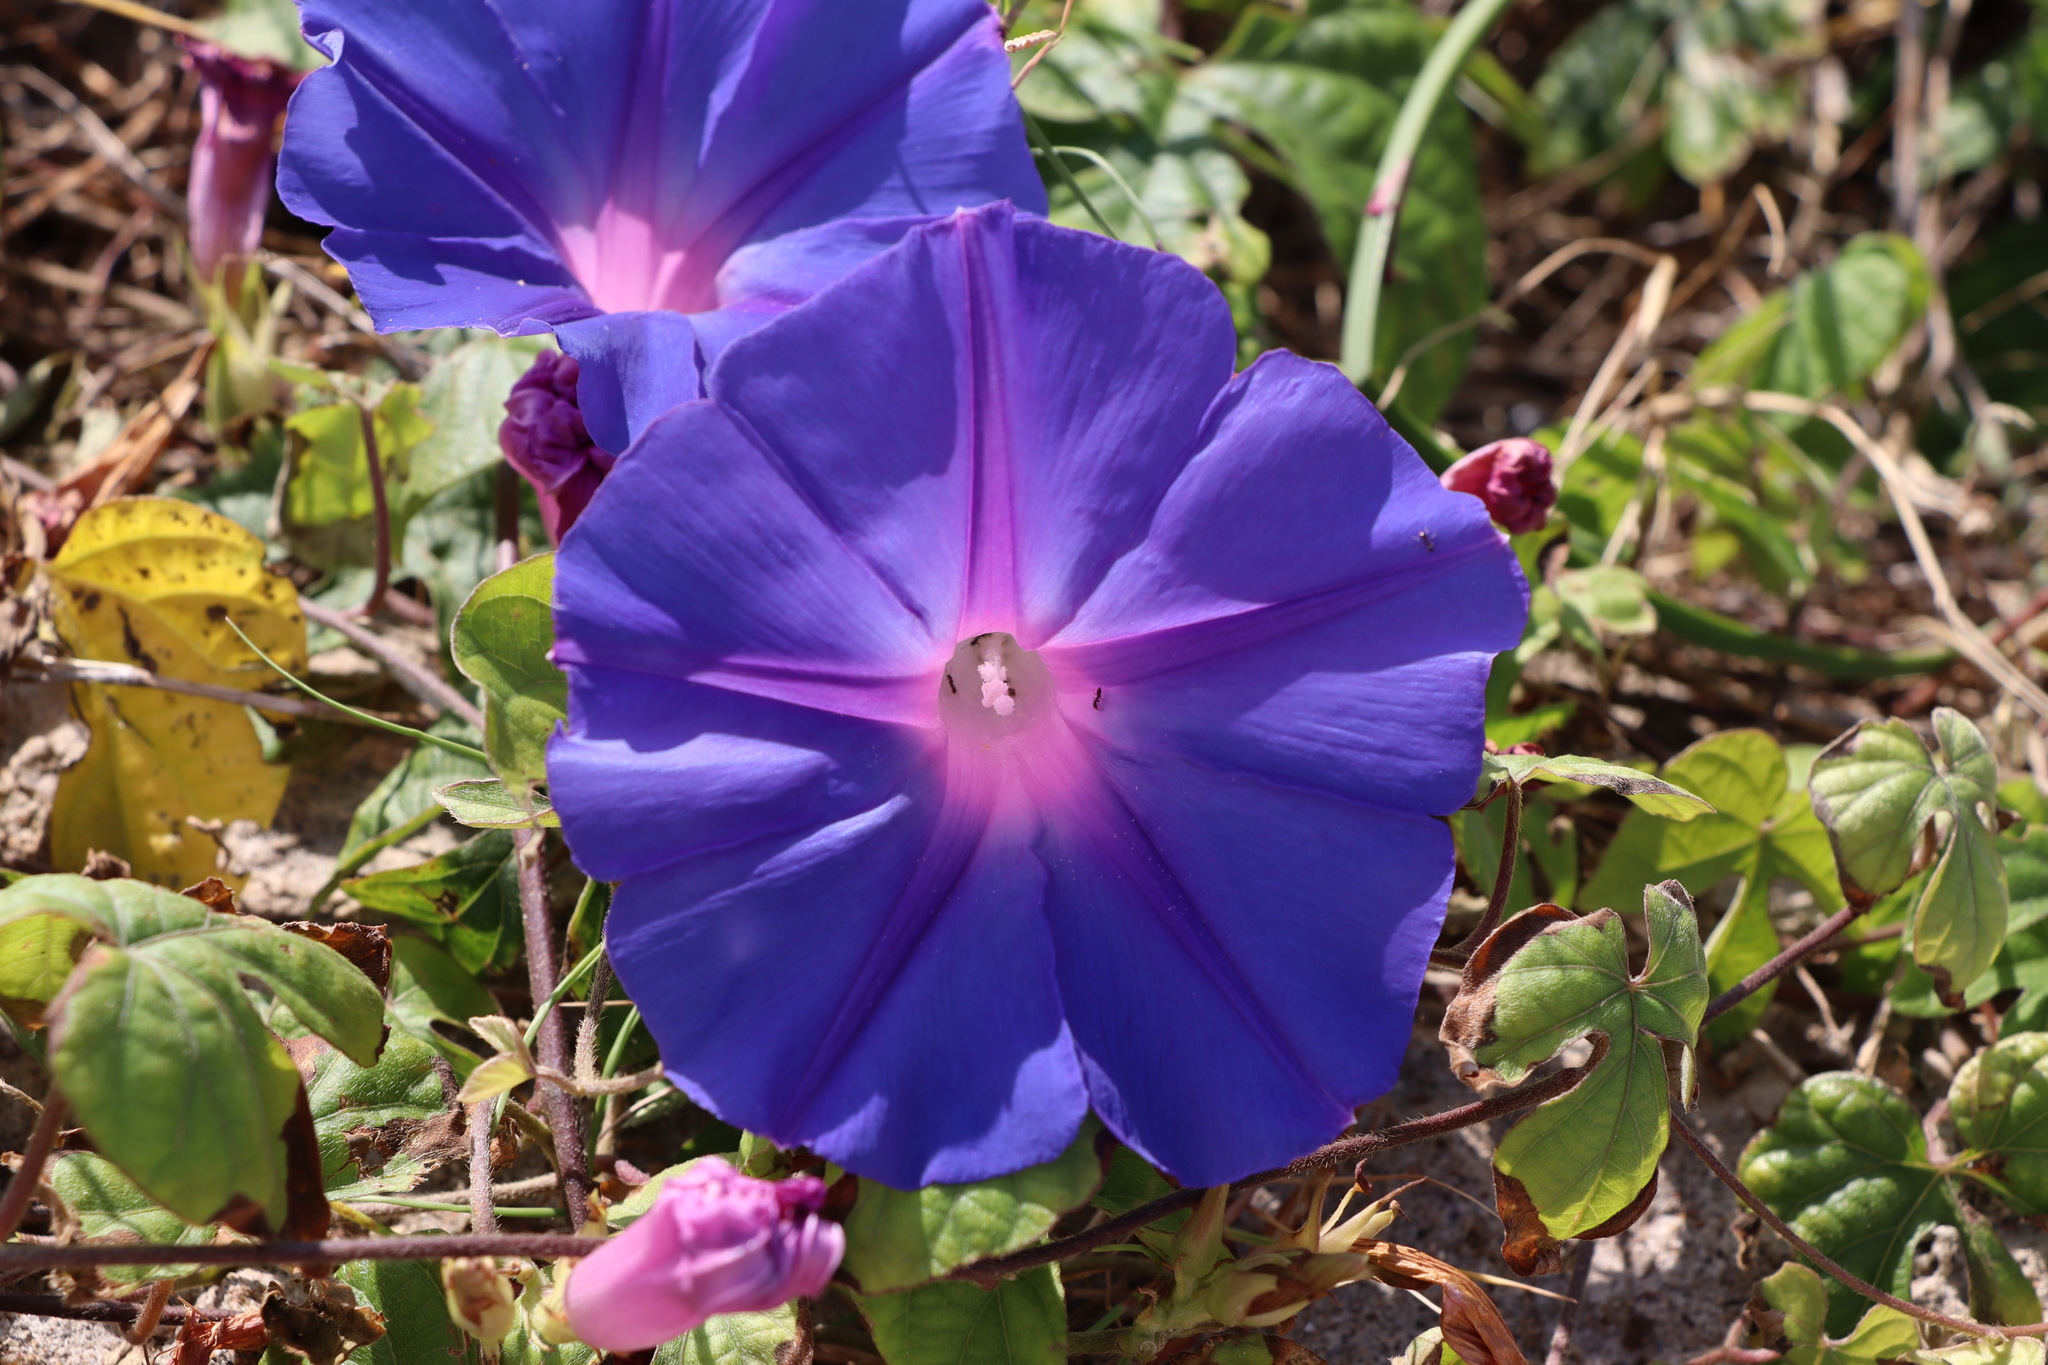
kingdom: Plantae
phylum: Tracheophyta
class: Magnoliopsida
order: Solanales
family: Convolvulaceae
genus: Ipomoea
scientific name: Ipomoea indica
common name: Blue dawnflower
